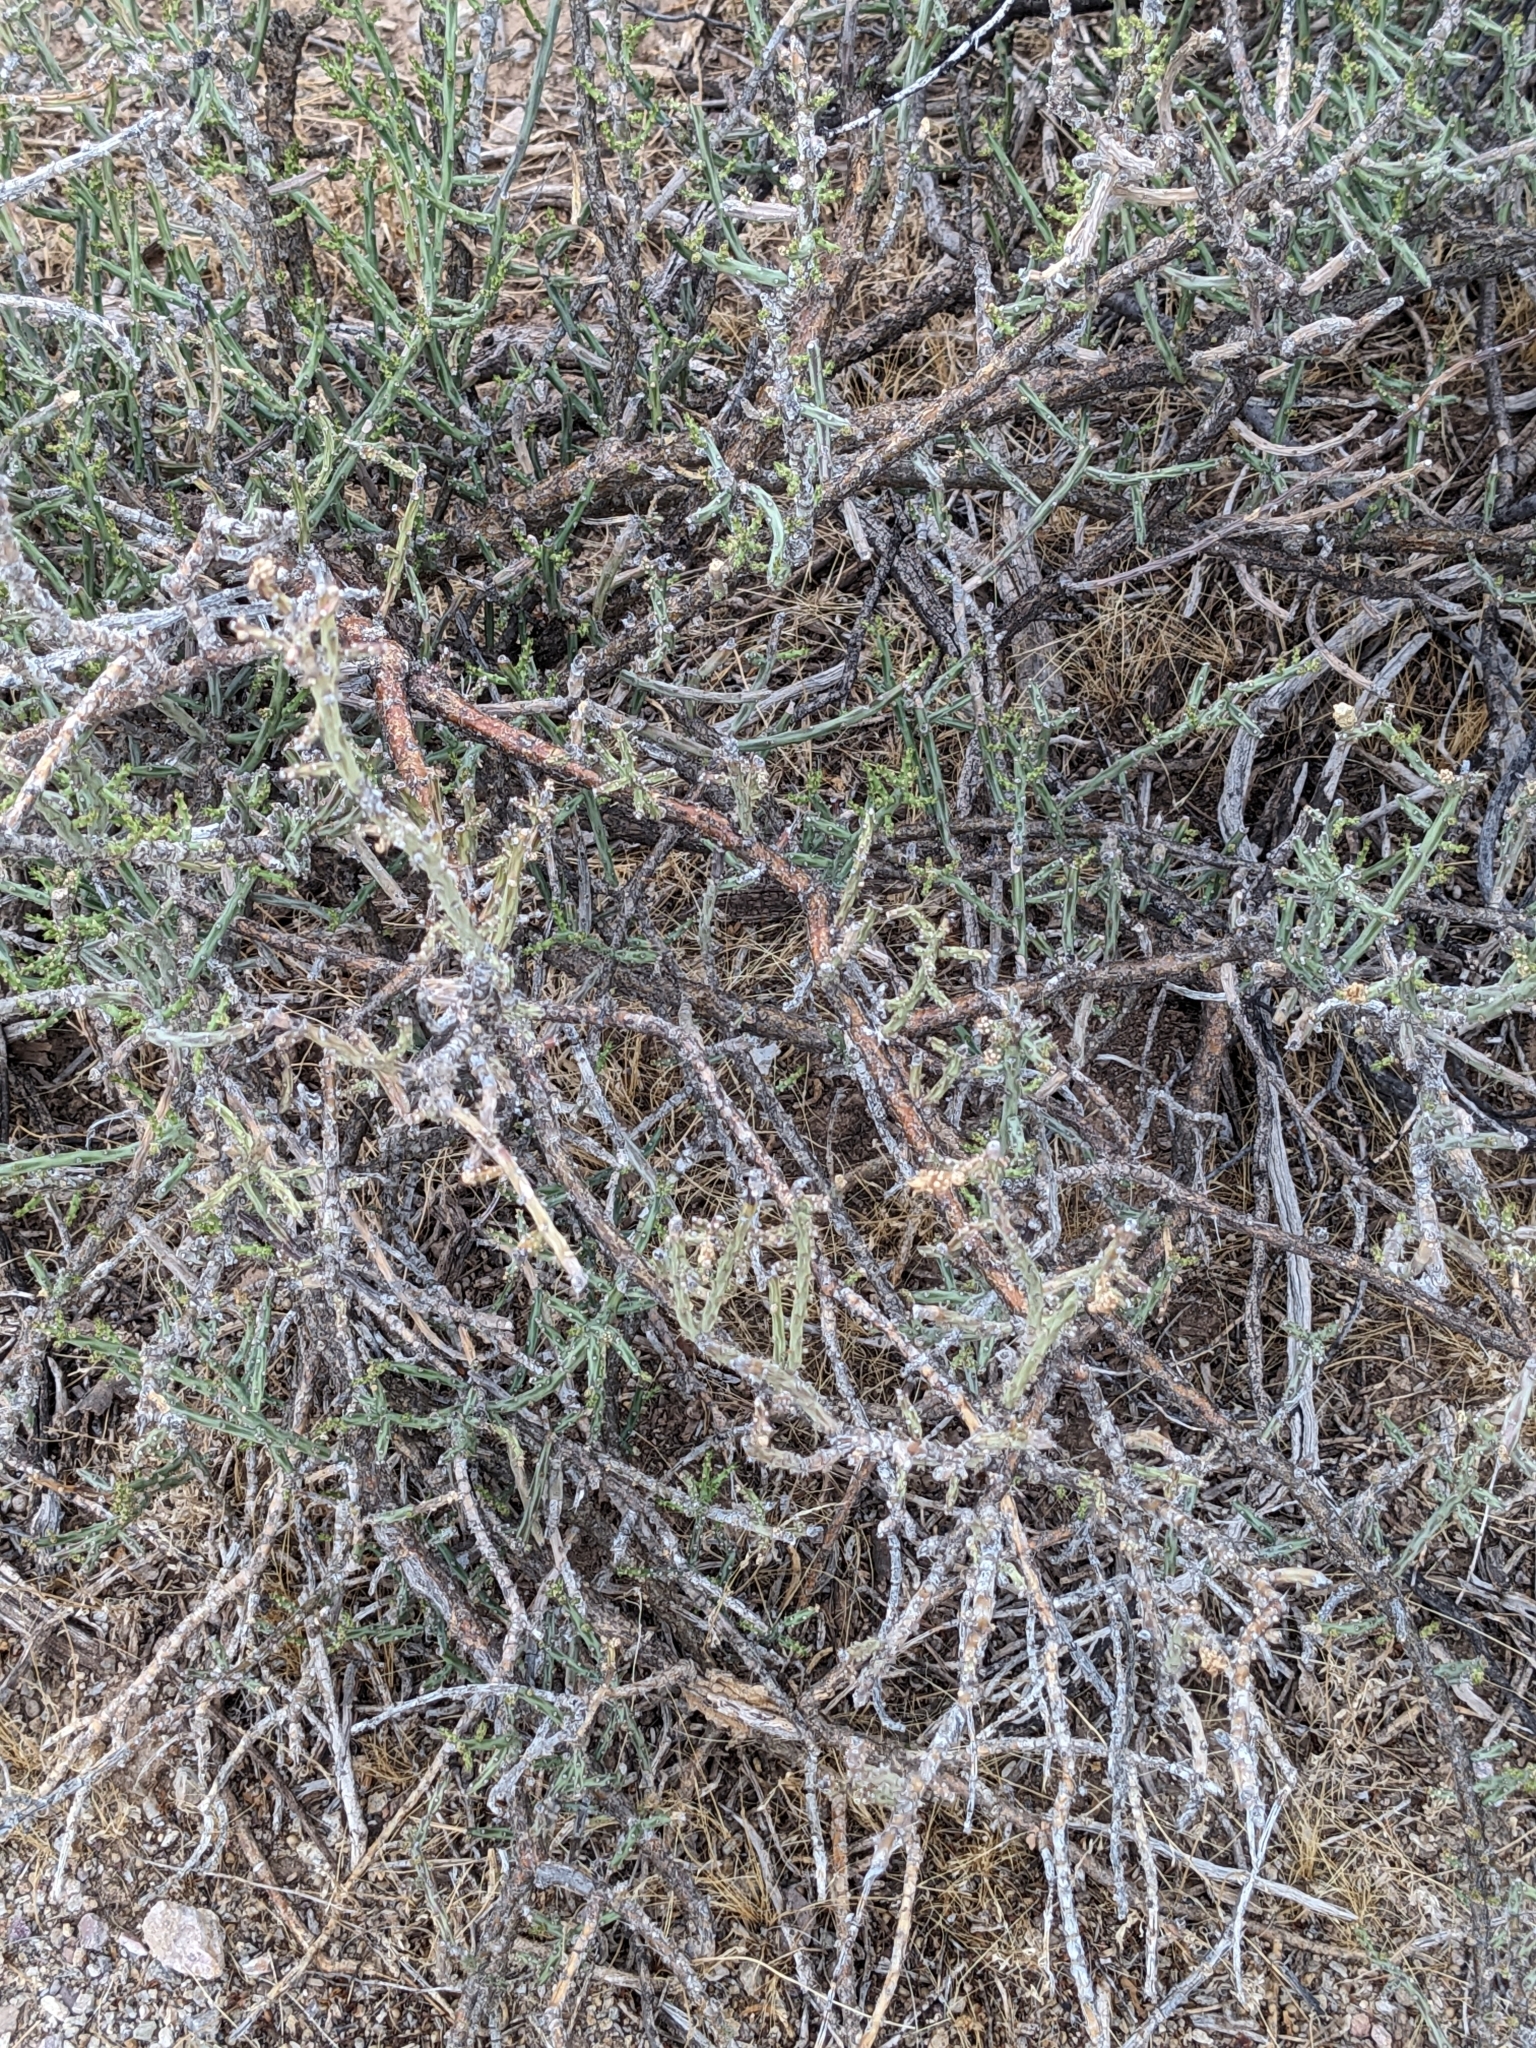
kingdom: Plantae
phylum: Tracheophyta
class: Magnoliopsida
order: Caryophyllales
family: Cactaceae
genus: Cylindropuntia
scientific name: Cylindropuntia leptocaulis
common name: Christmas cactus
